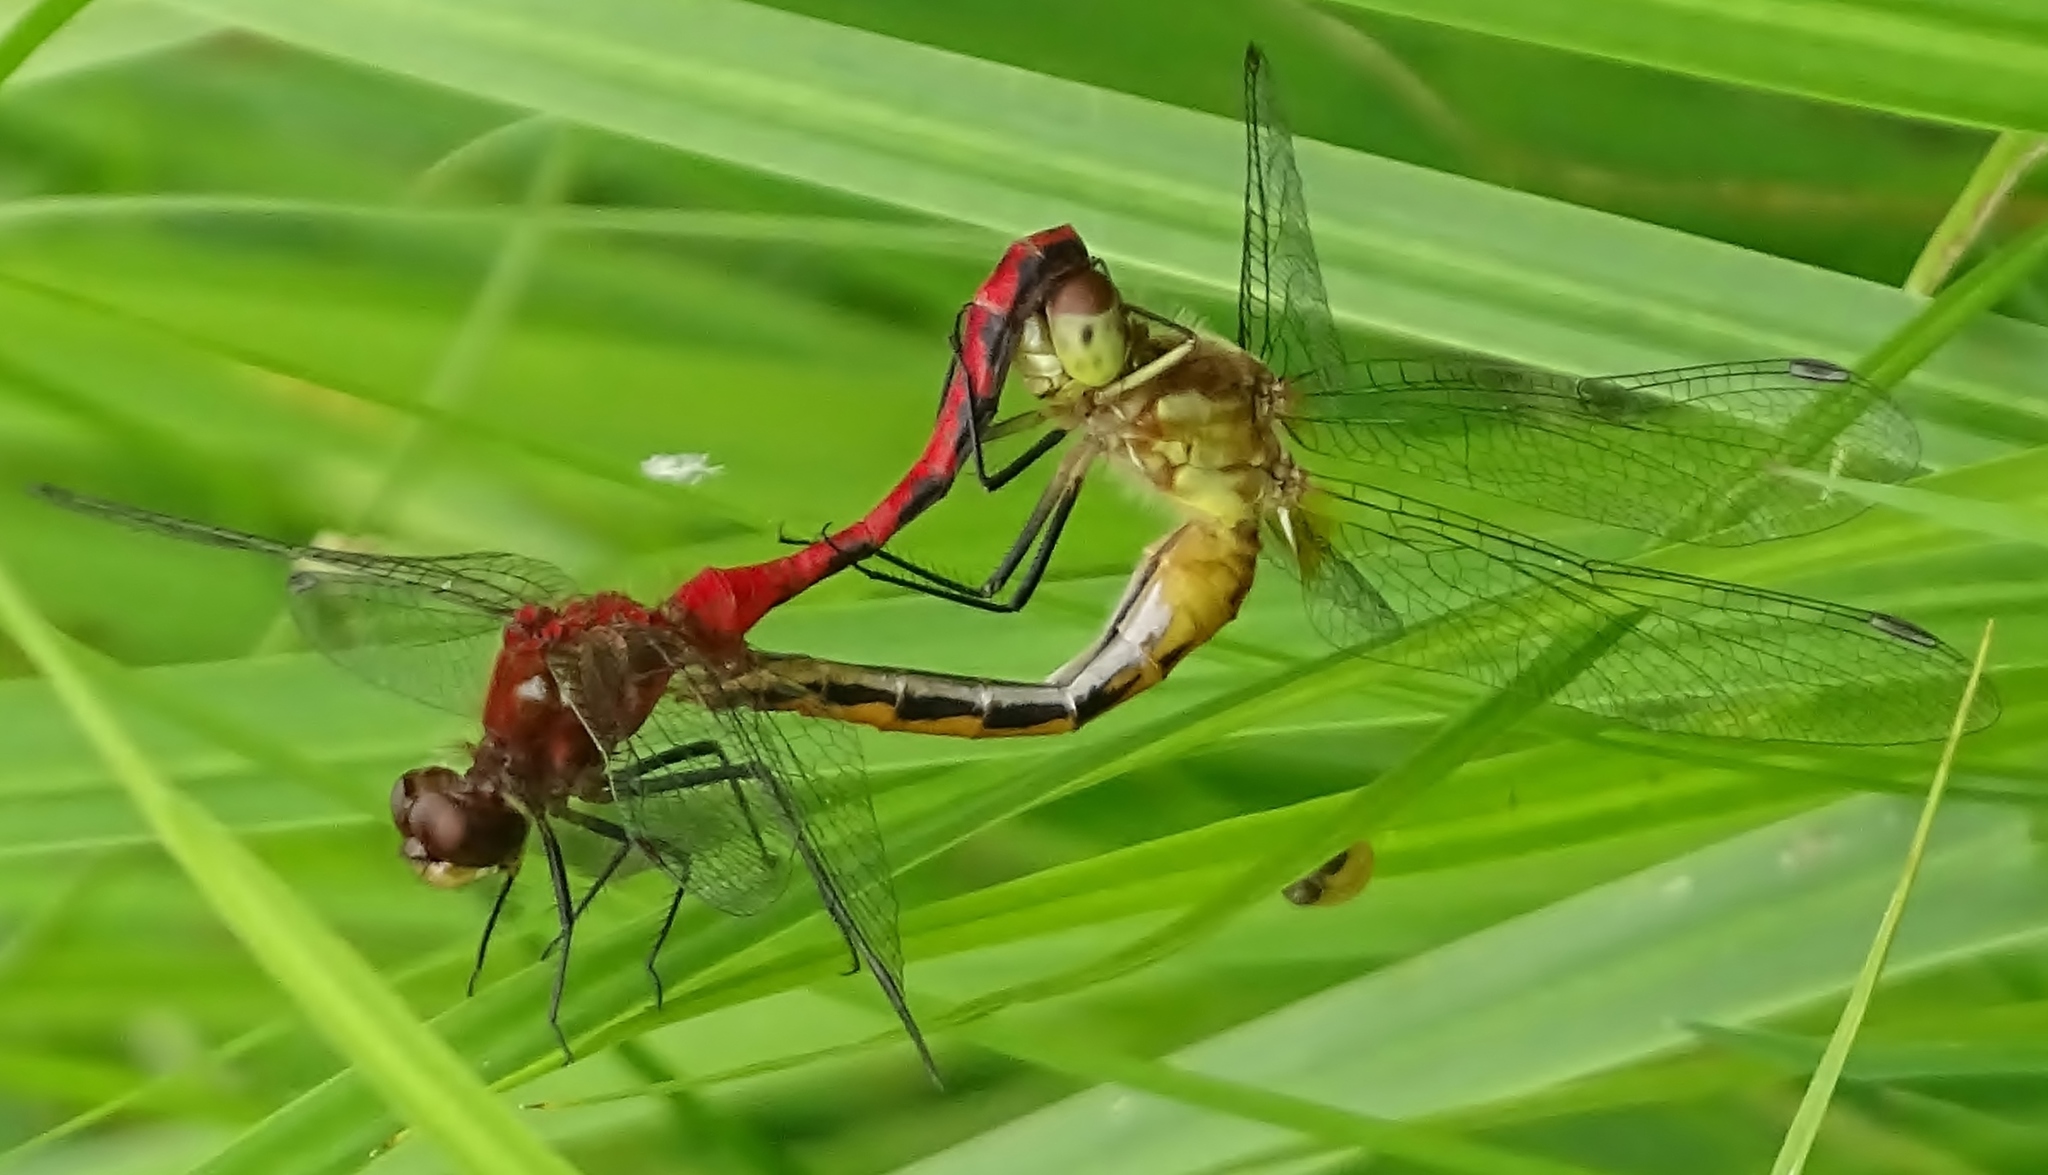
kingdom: Animalia
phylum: Arthropoda
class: Insecta
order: Odonata
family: Libellulidae
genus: Sympetrum
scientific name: Sympetrum
